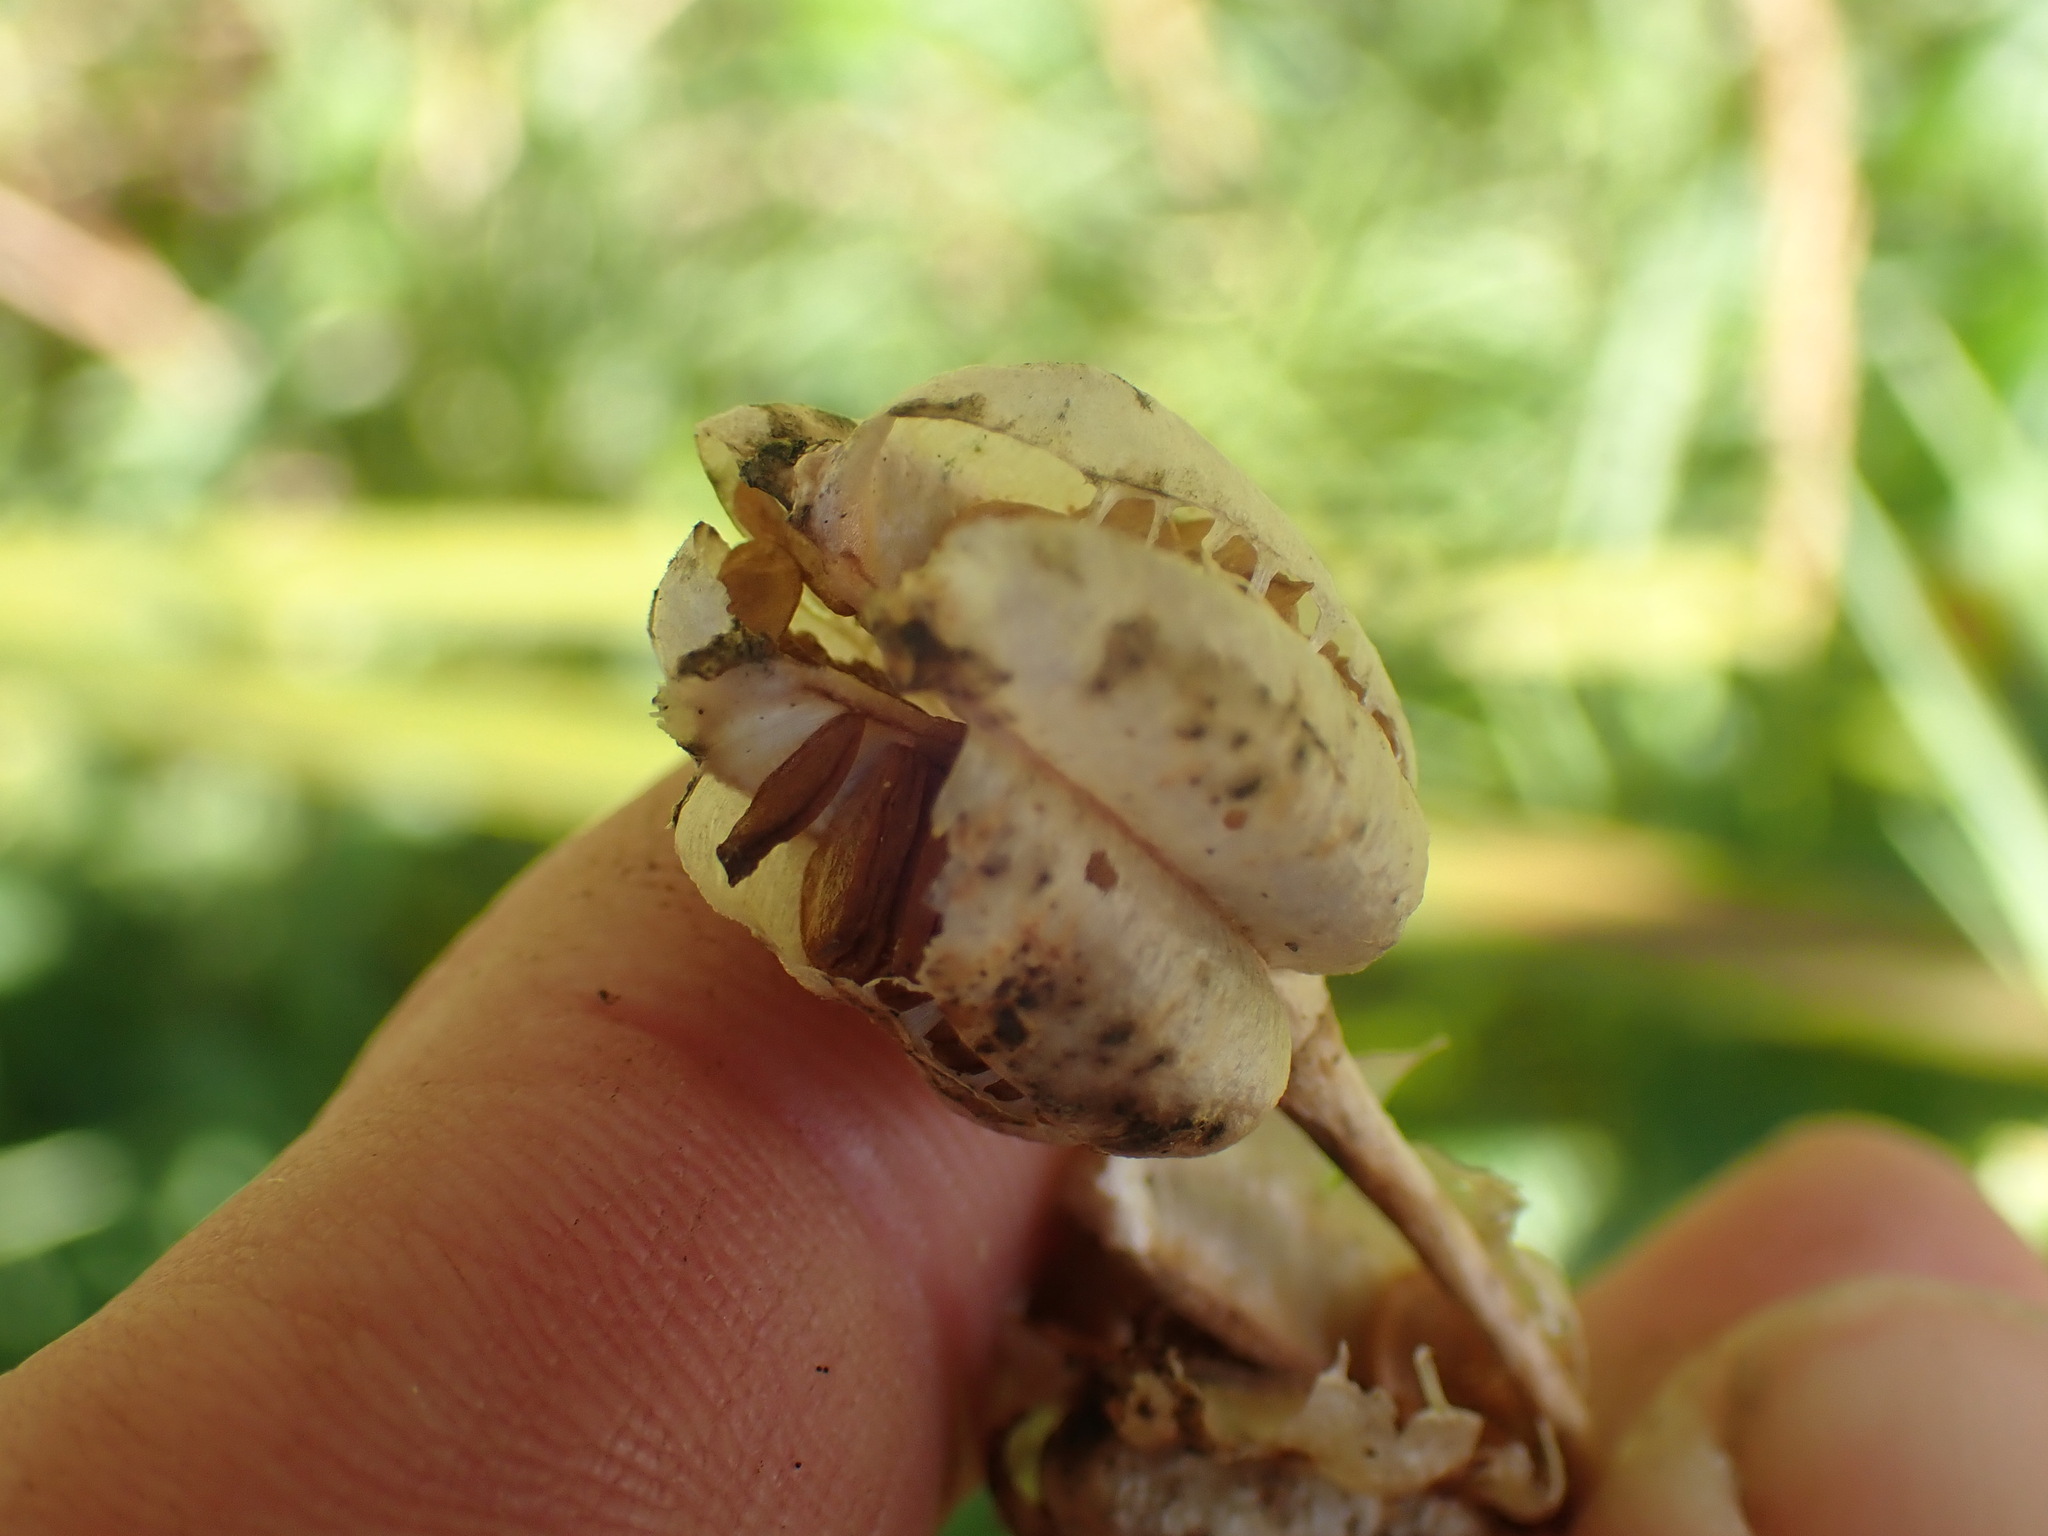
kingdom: Plantae
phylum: Tracheophyta
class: Liliopsida
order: Liliales
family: Liliaceae
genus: Fritillaria
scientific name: Fritillaria camschatcensis
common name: Kamchatka fritillary
